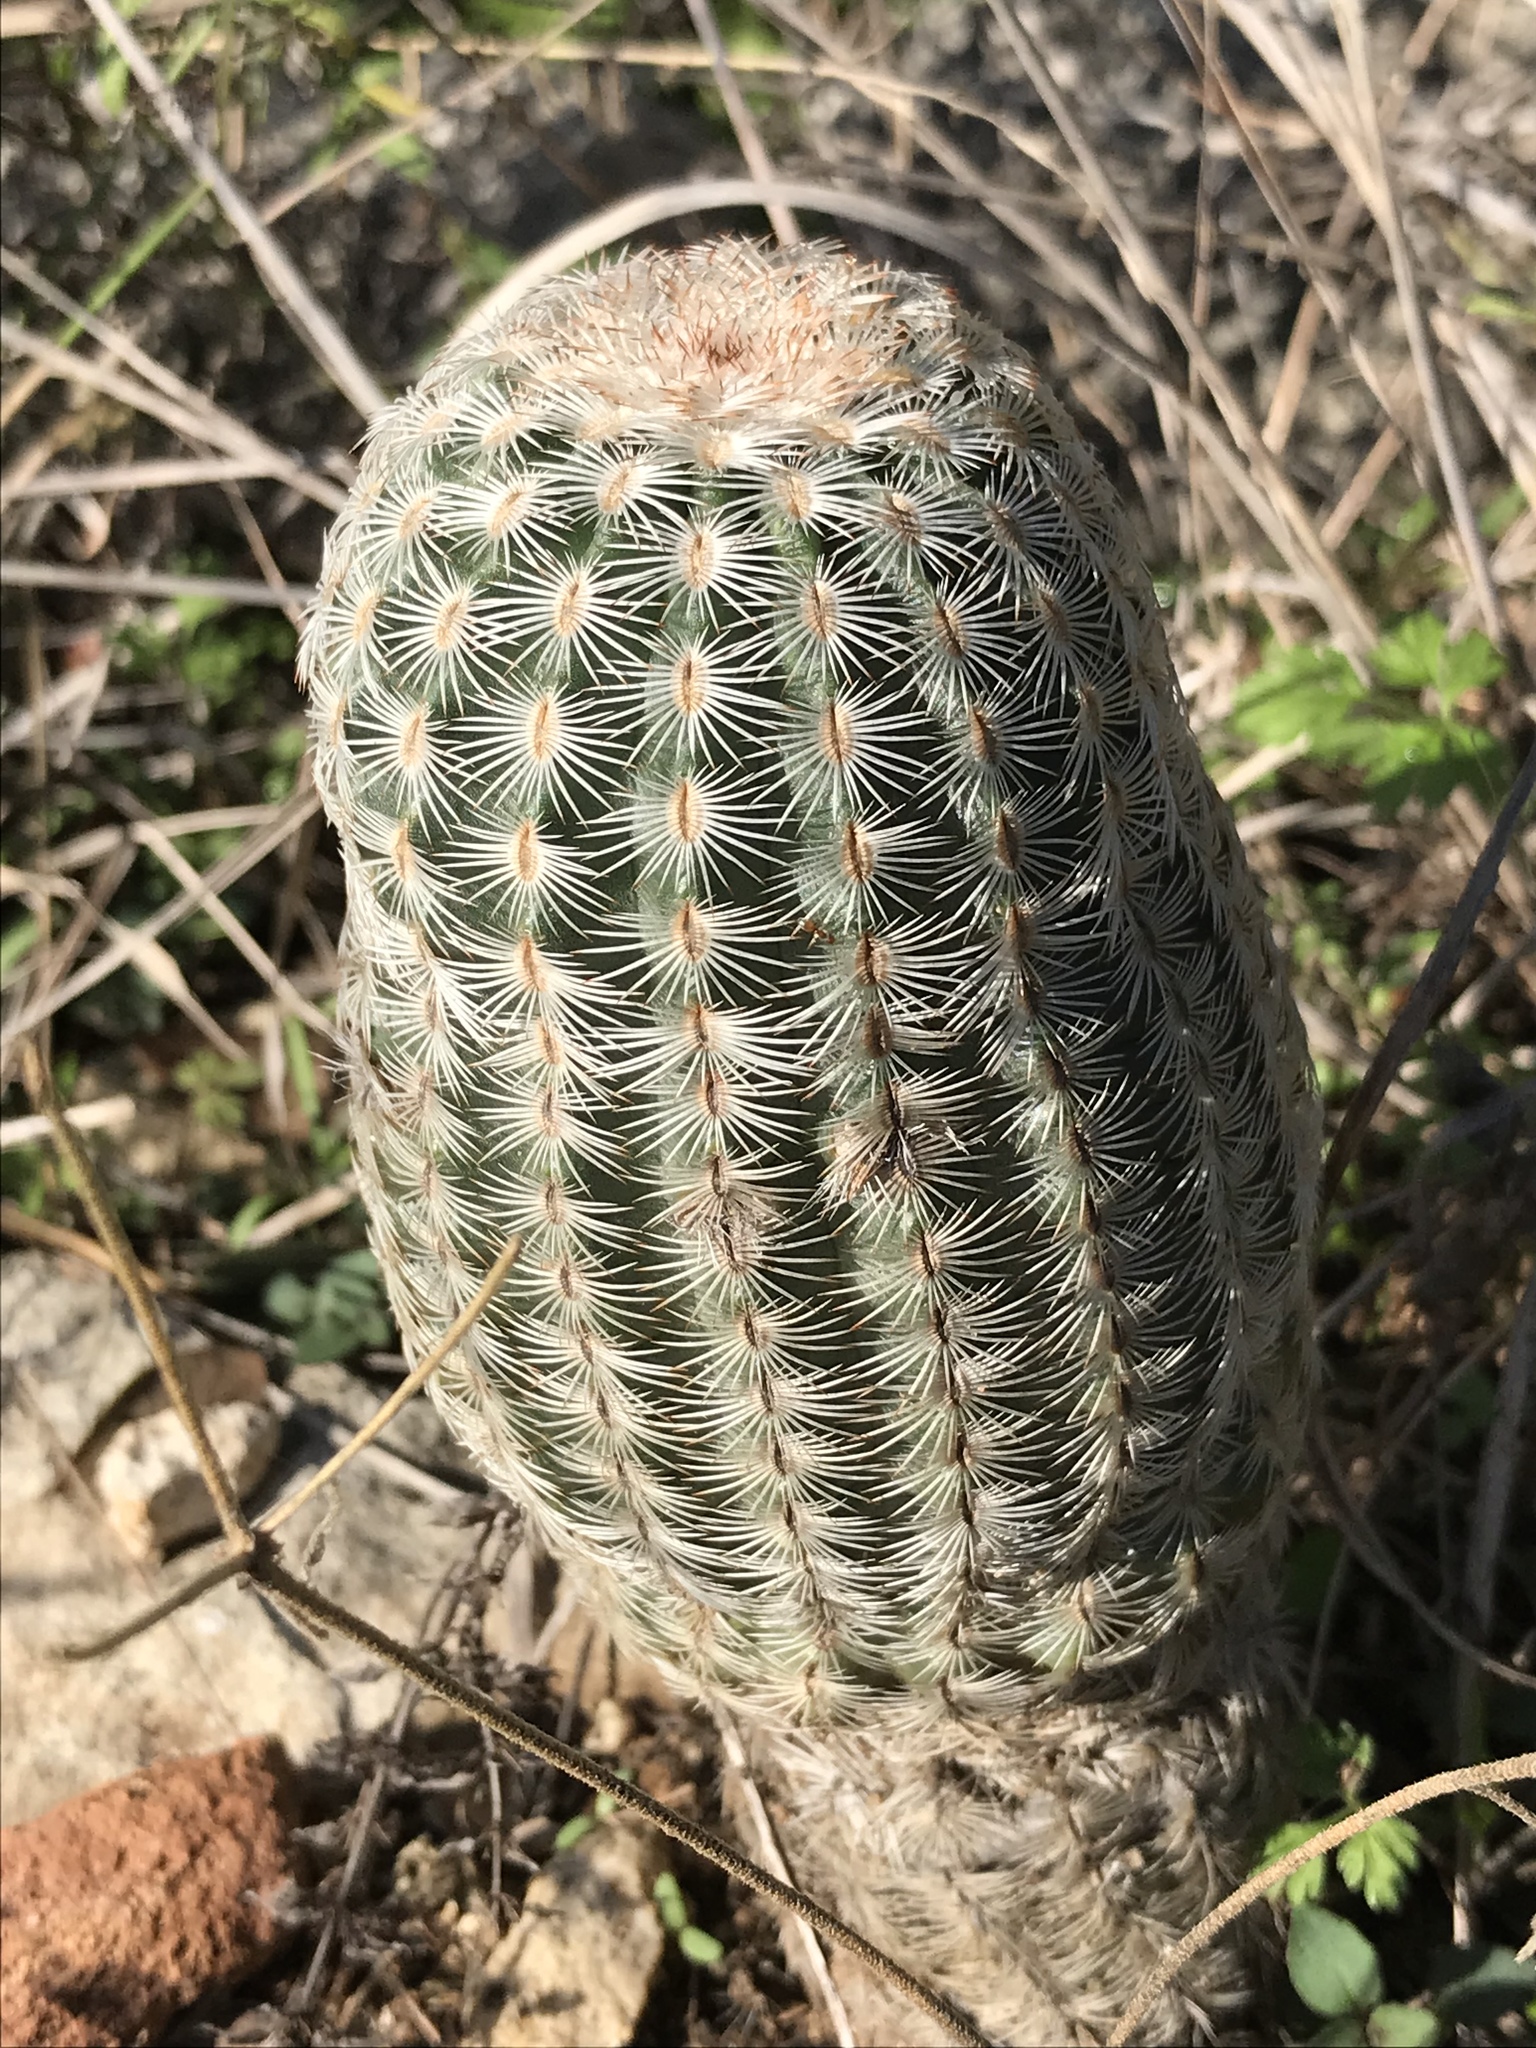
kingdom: Plantae
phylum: Tracheophyta
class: Magnoliopsida
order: Caryophyllales
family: Cactaceae
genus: Echinocereus
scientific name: Echinocereus reichenbachii
